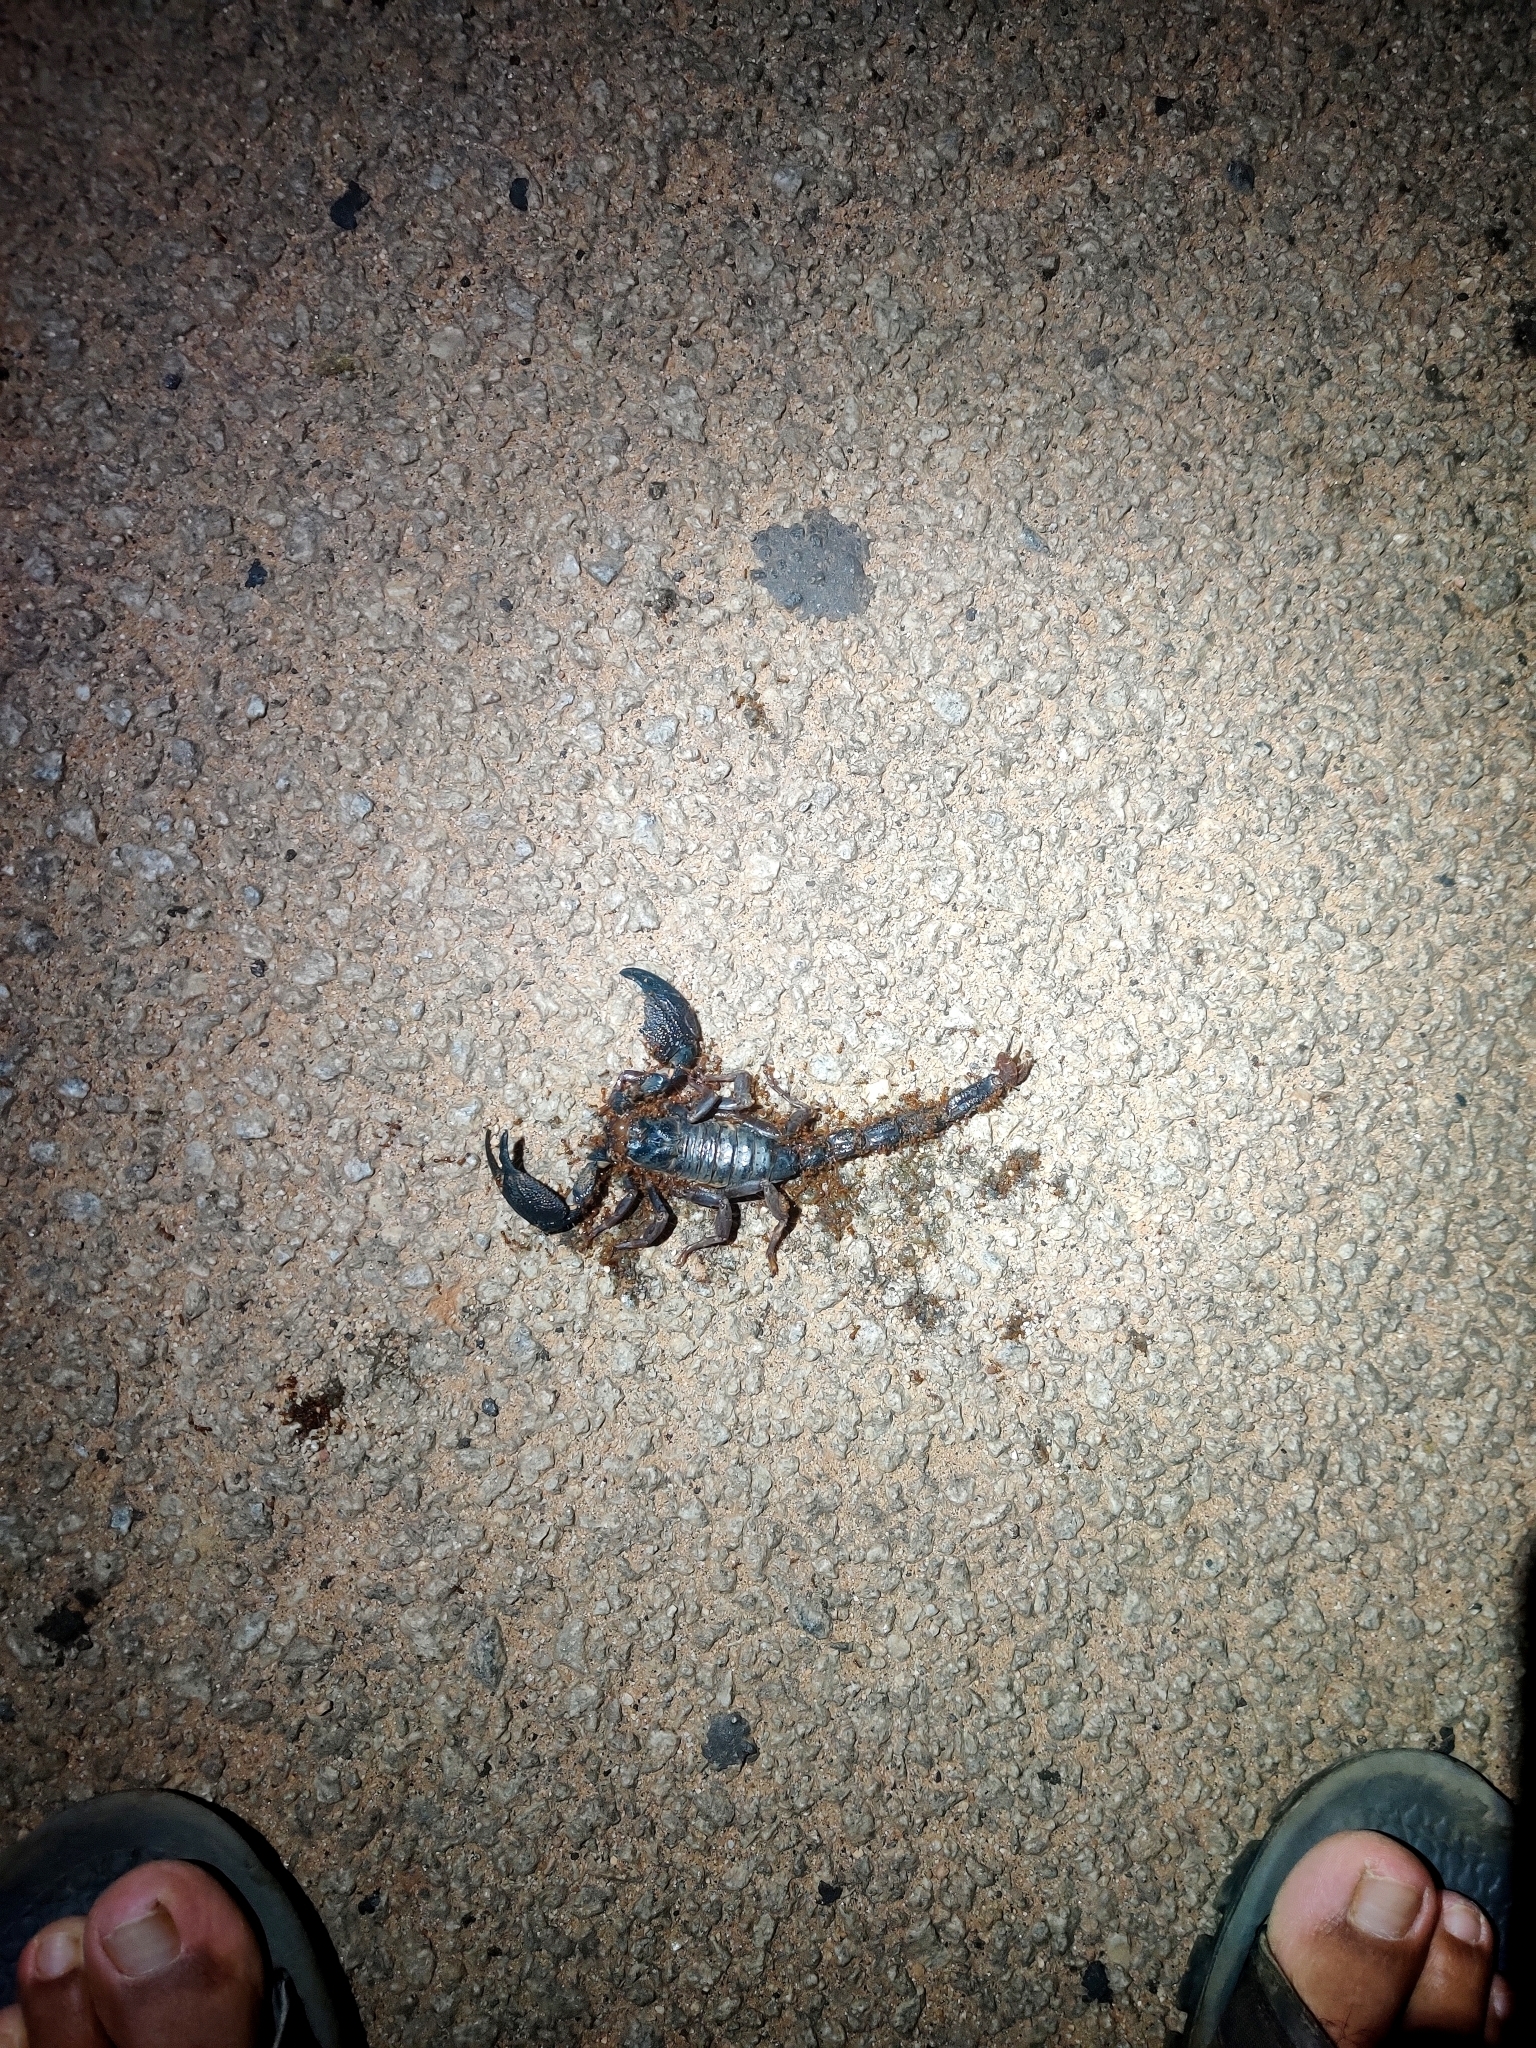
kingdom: Animalia
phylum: Arthropoda
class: Arachnida
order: Scorpiones
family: Scorpionidae
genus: Gigantometrus
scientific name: Gigantometrus swammerdami
